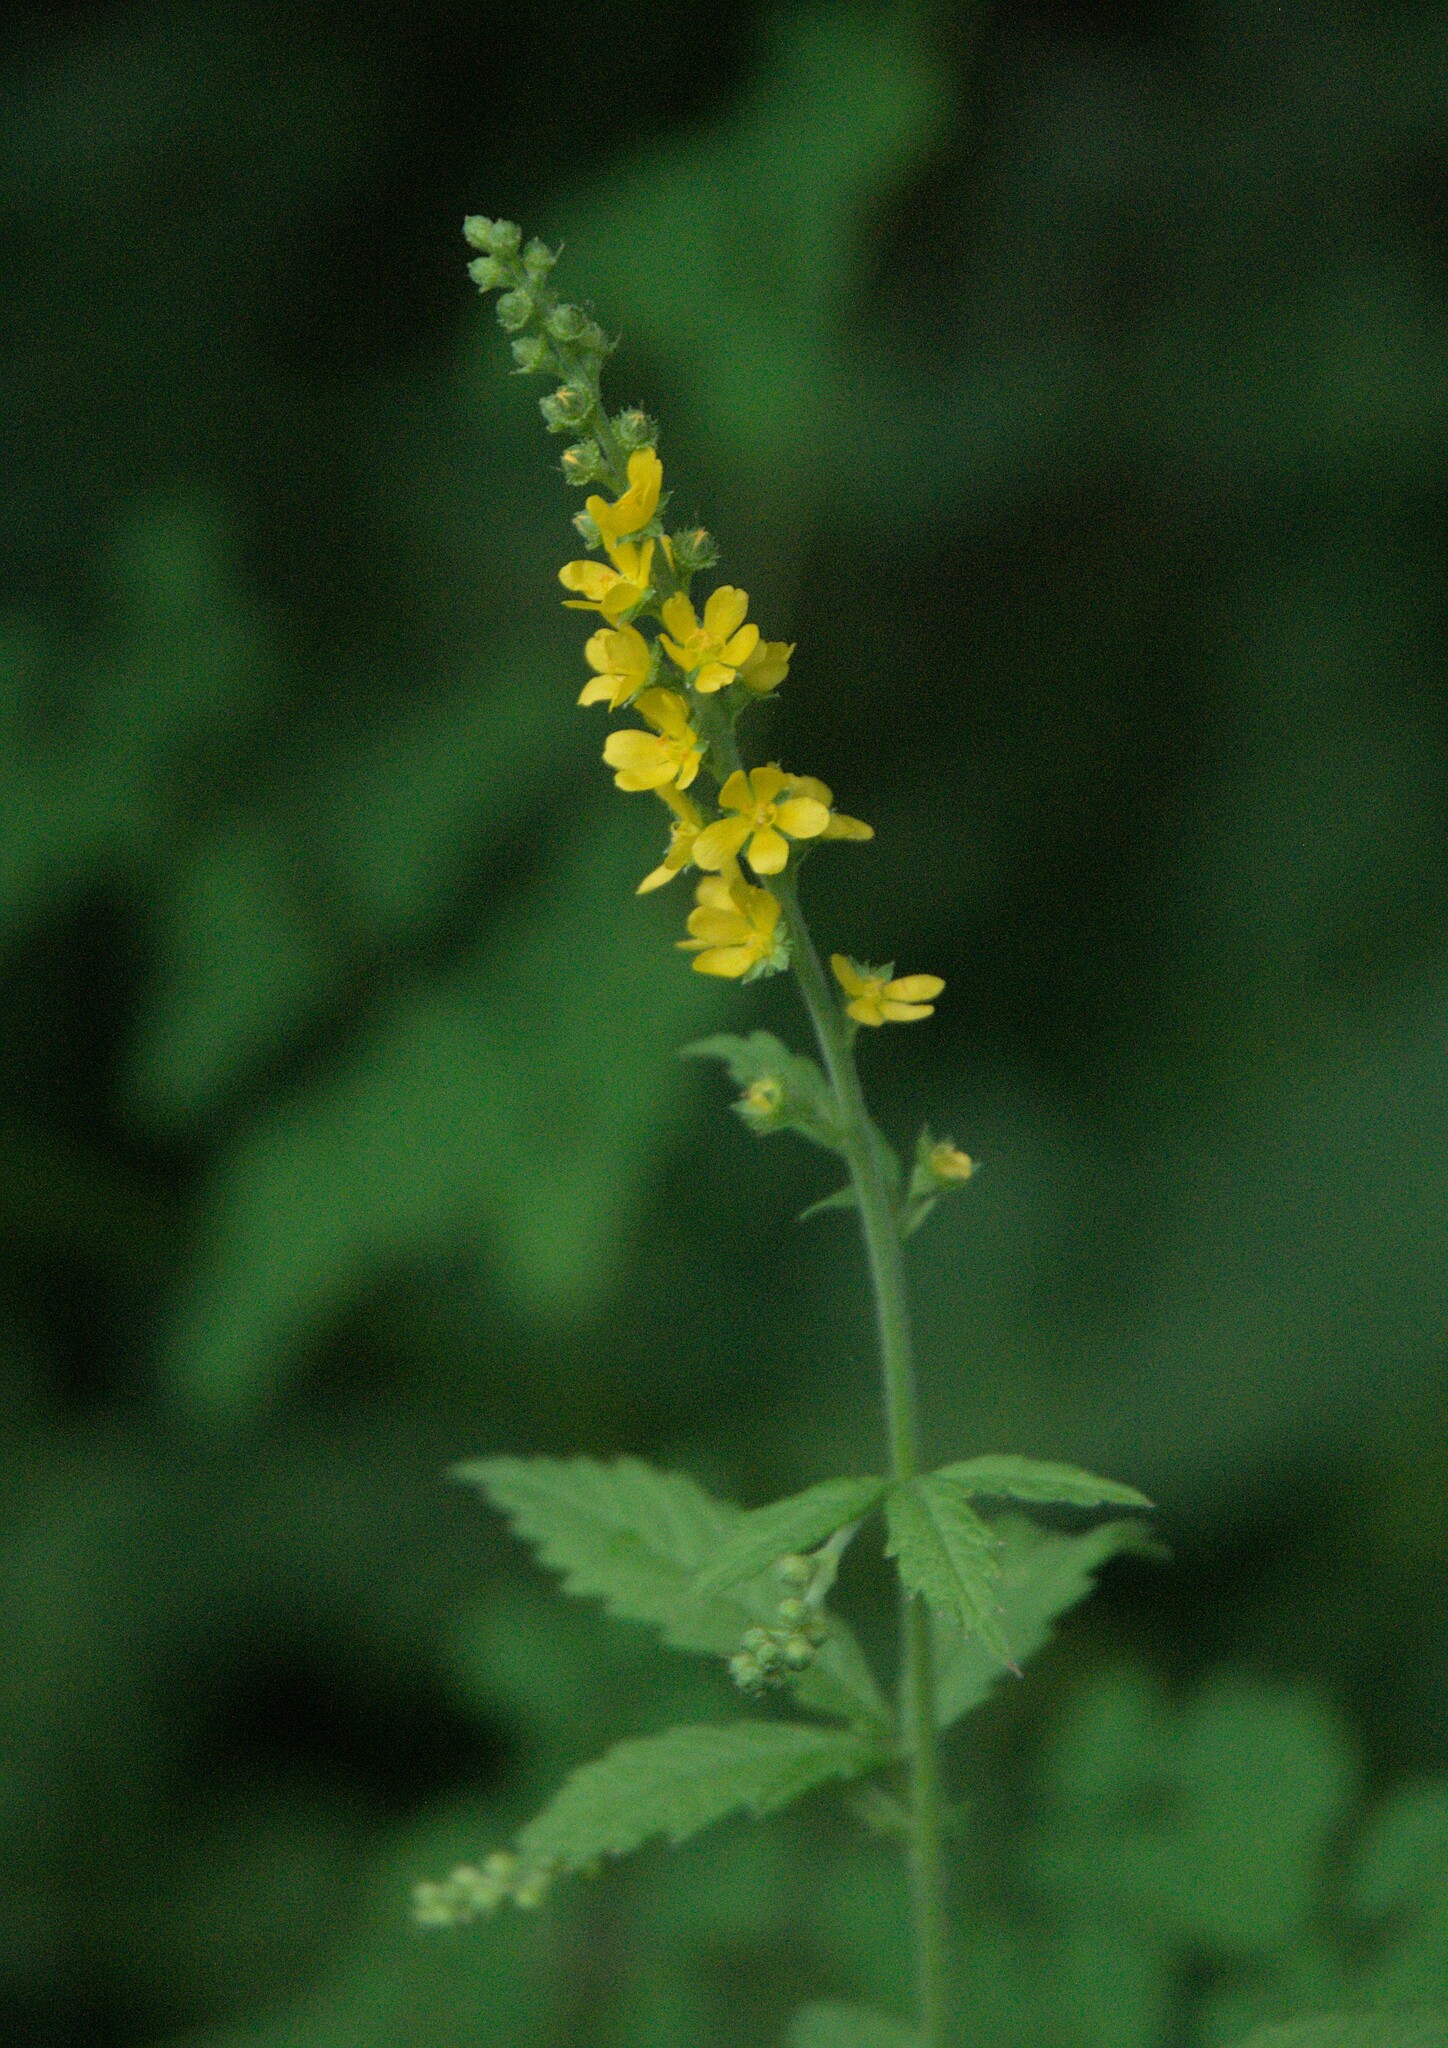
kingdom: Plantae
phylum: Tracheophyta
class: Magnoliopsida
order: Rosales
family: Rosaceae
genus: Agrimonia
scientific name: Agrimonia pilosa
